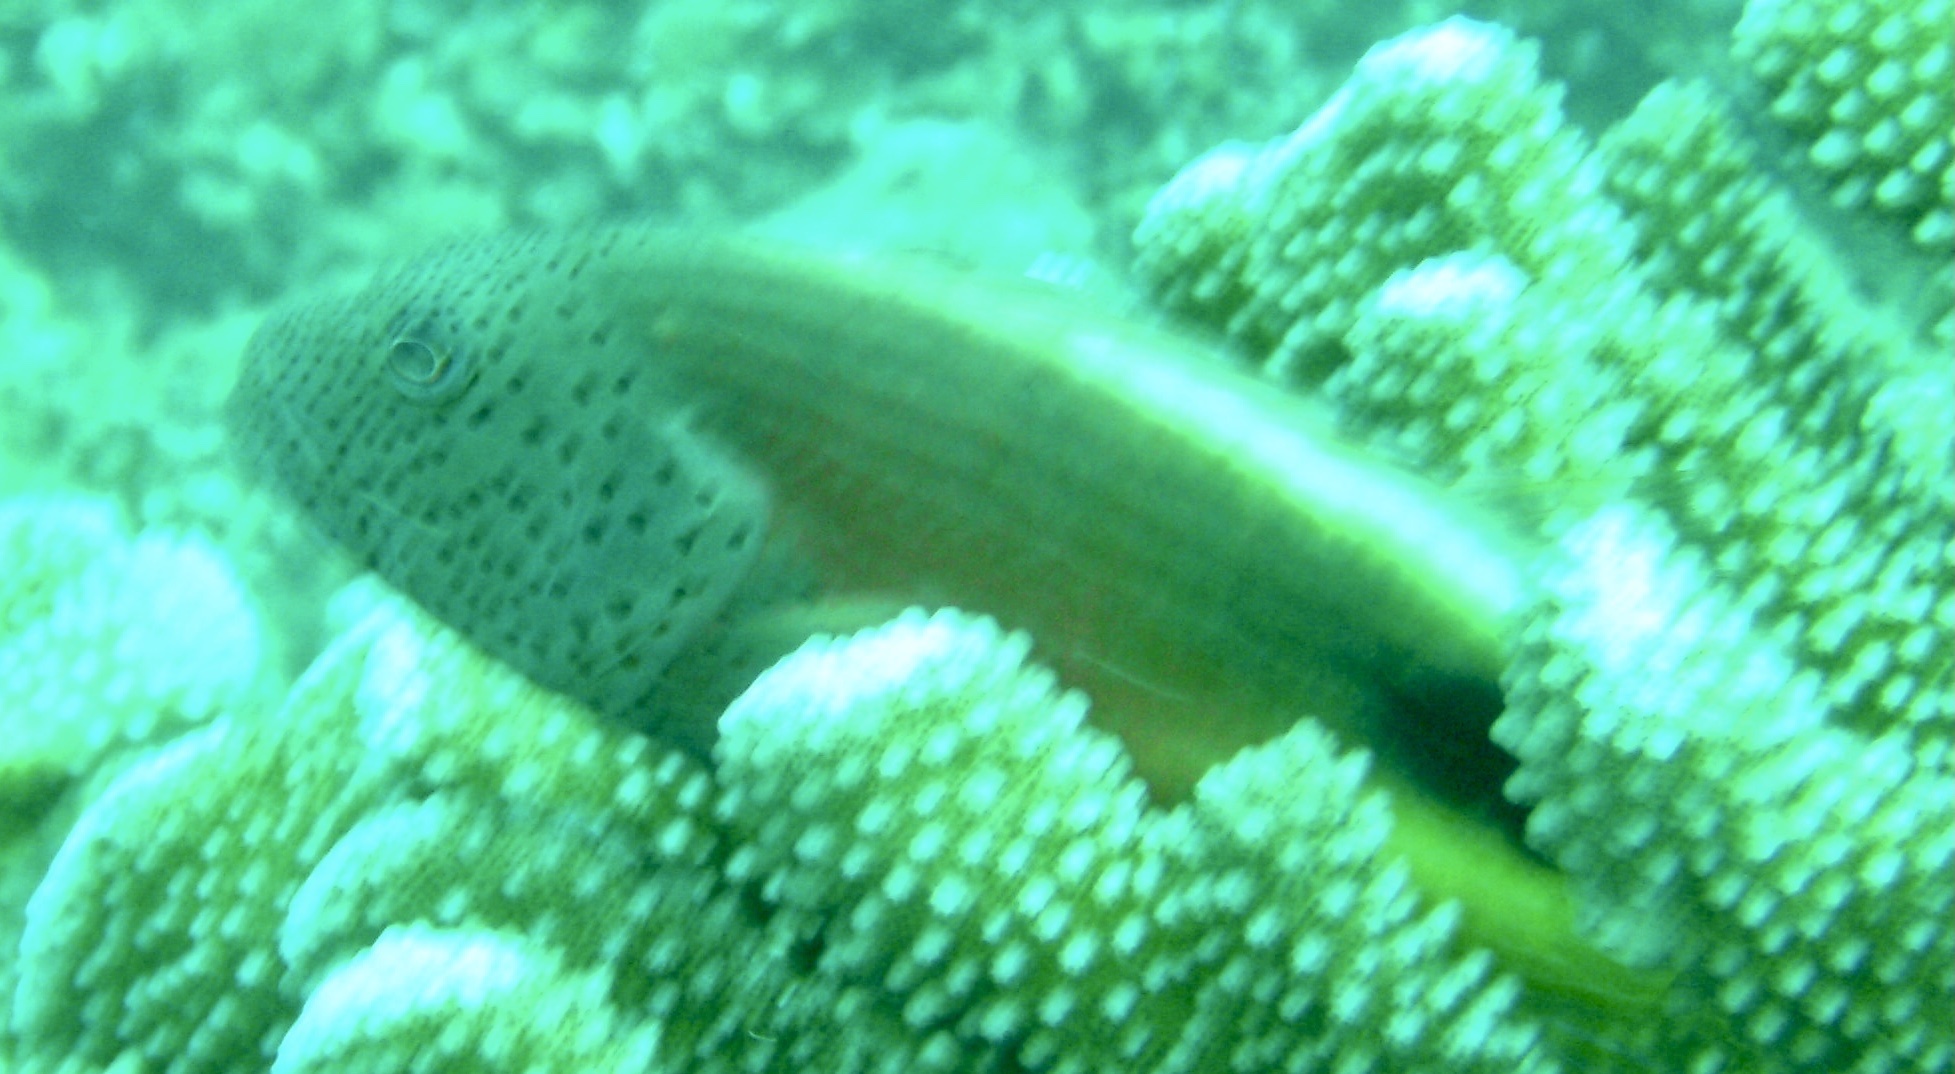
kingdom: Animalia
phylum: Chordata
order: Perciformes
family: Cirrhitidae
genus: Paracirrhites
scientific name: Paracirrhites forsteri
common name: Freckled hawkfish
